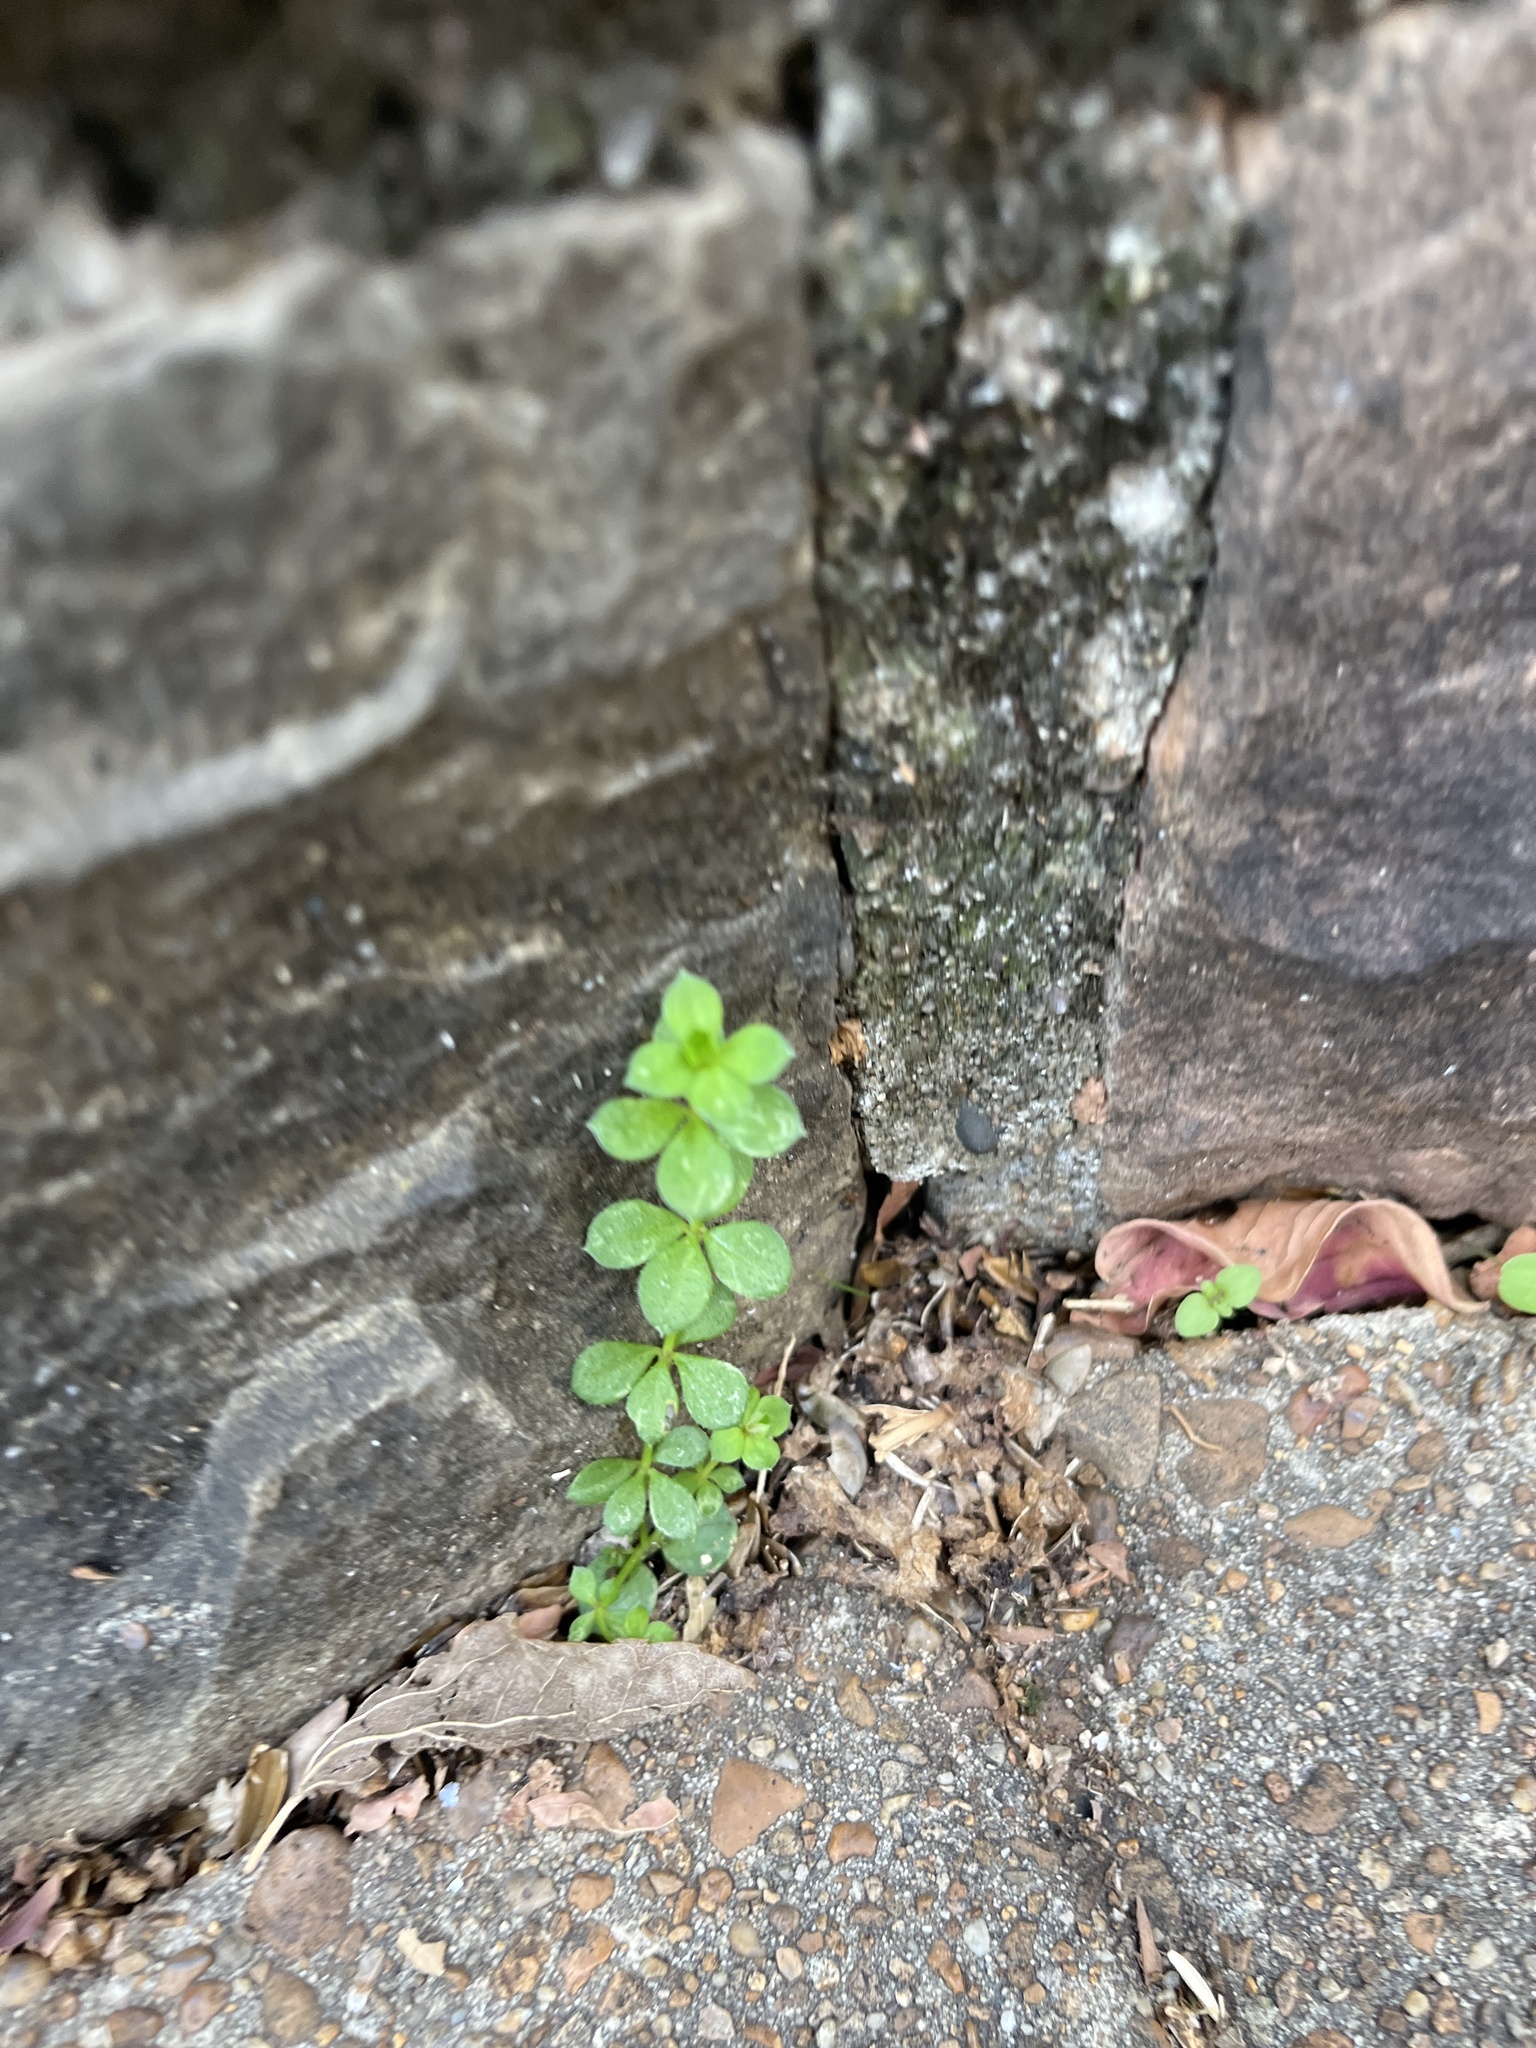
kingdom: Plantae
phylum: Tracheophyta
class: Magnoliopsida
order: Gentianales
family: Rubiaceae
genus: Galium
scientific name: Galium pilosum
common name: Hairy bedstraw
